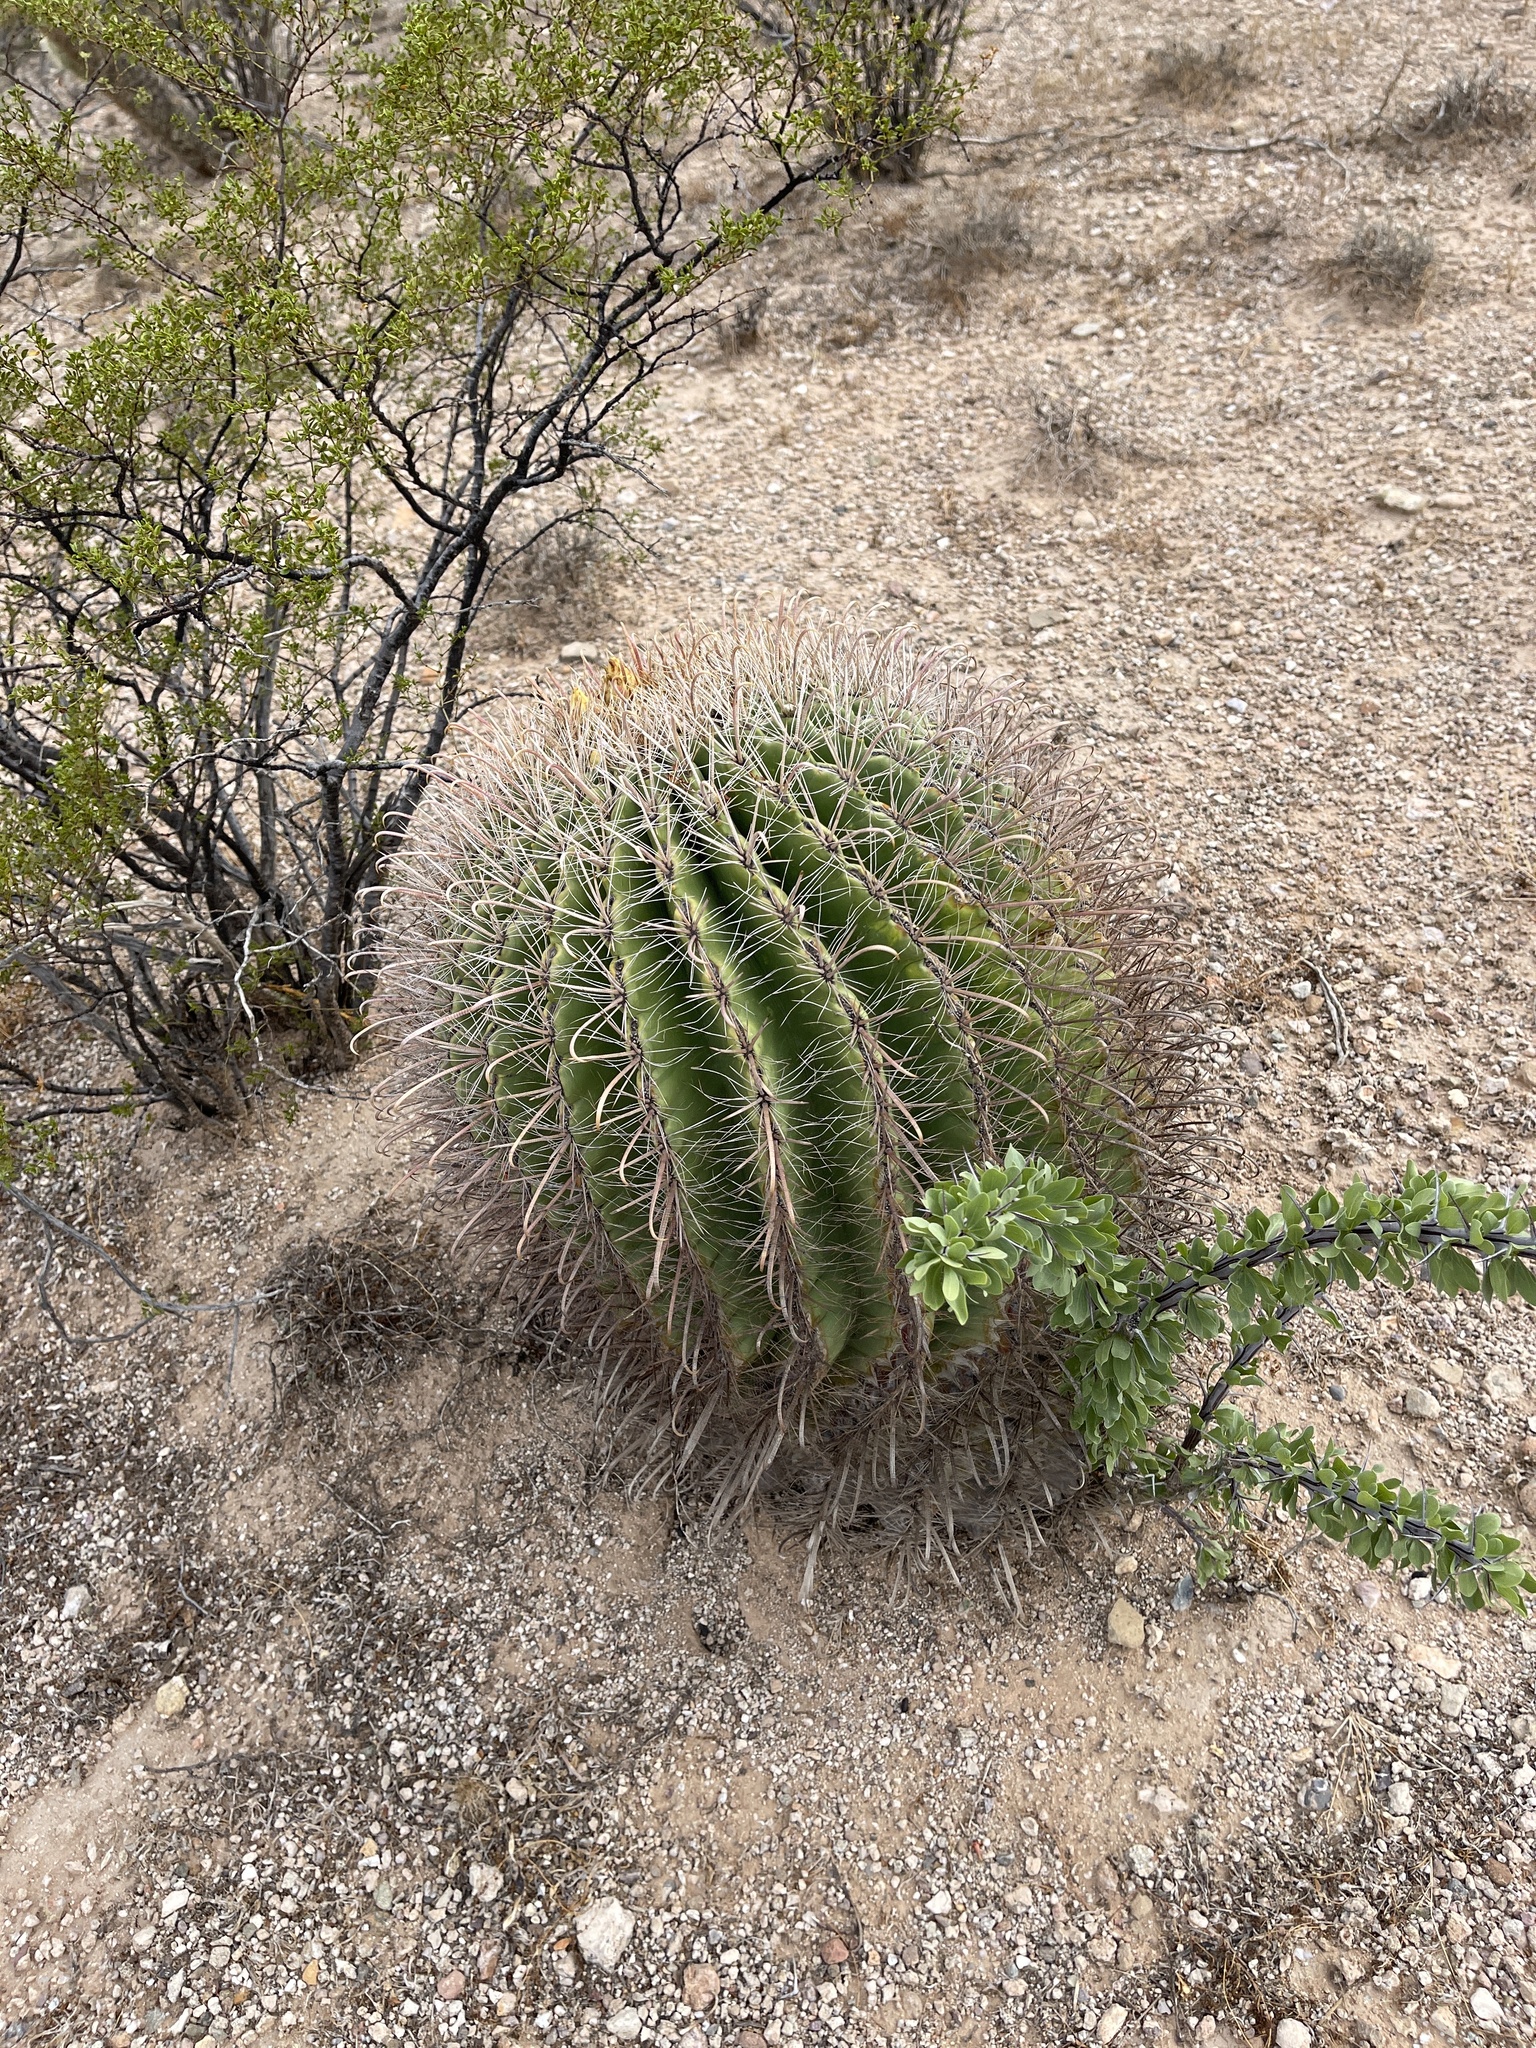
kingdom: Plantae
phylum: Tracheophyta
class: Magnoliopsida
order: Caryophyllales
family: Cactaceae
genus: Ferocactus
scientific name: Ferocactus wislizeni
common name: Candy barrel cactus
